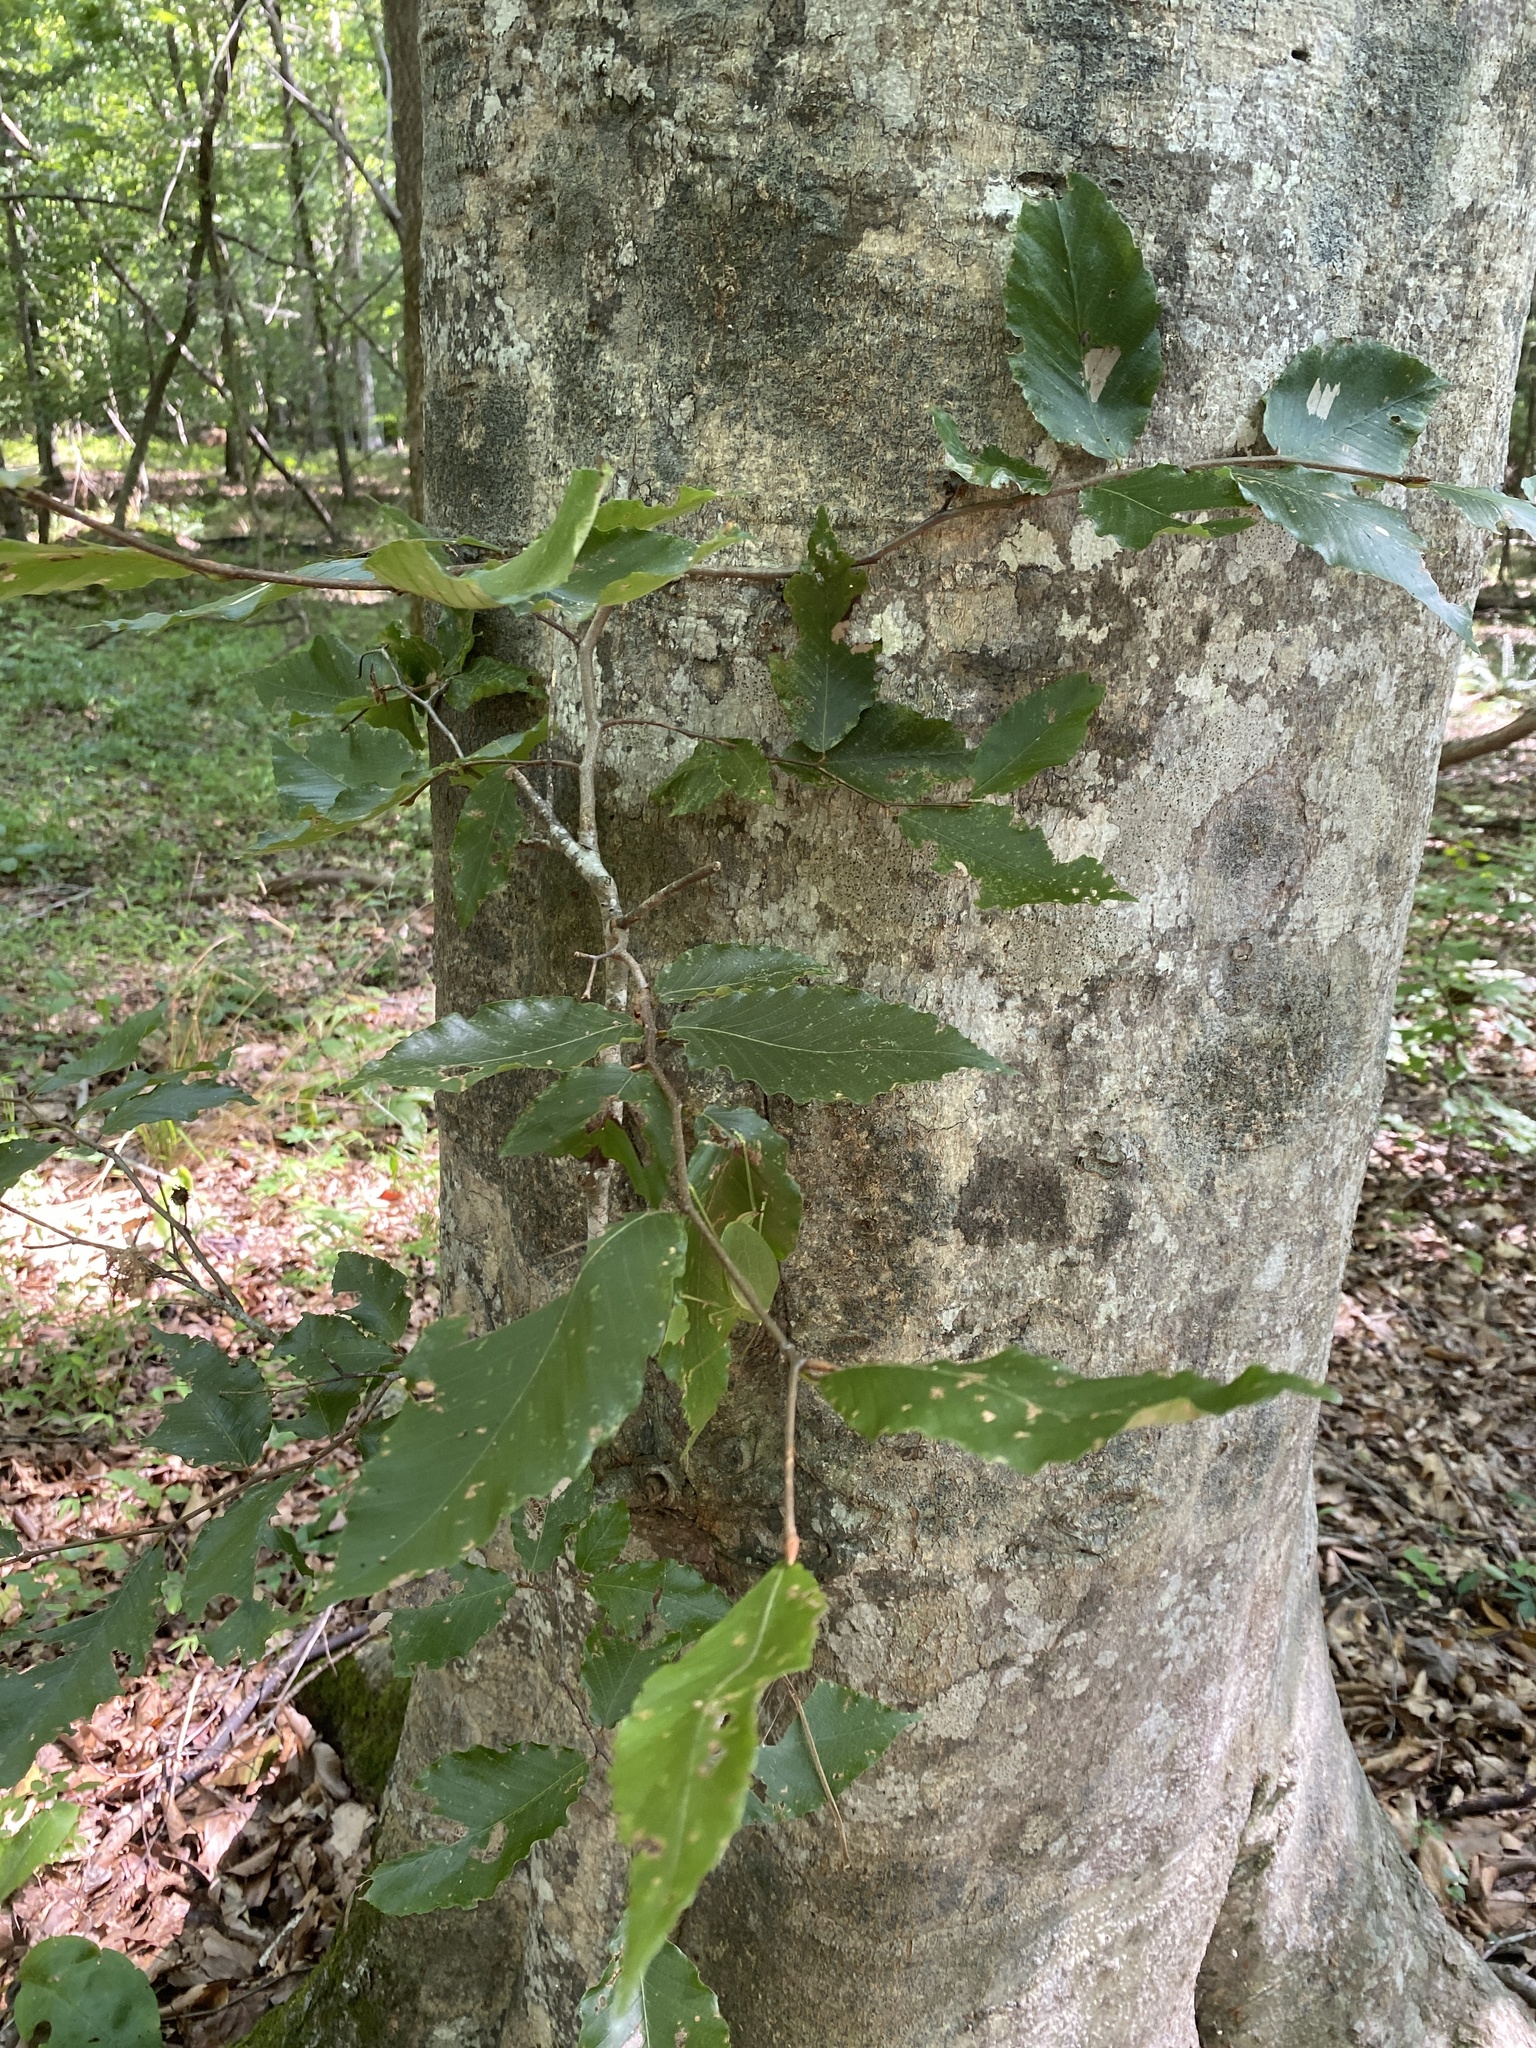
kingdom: Plantae
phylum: Tracheophyta
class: Magnoliopsida
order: Fagales
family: Fagaceae
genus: Fagus
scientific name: Fagus grandifolia
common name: American beech
